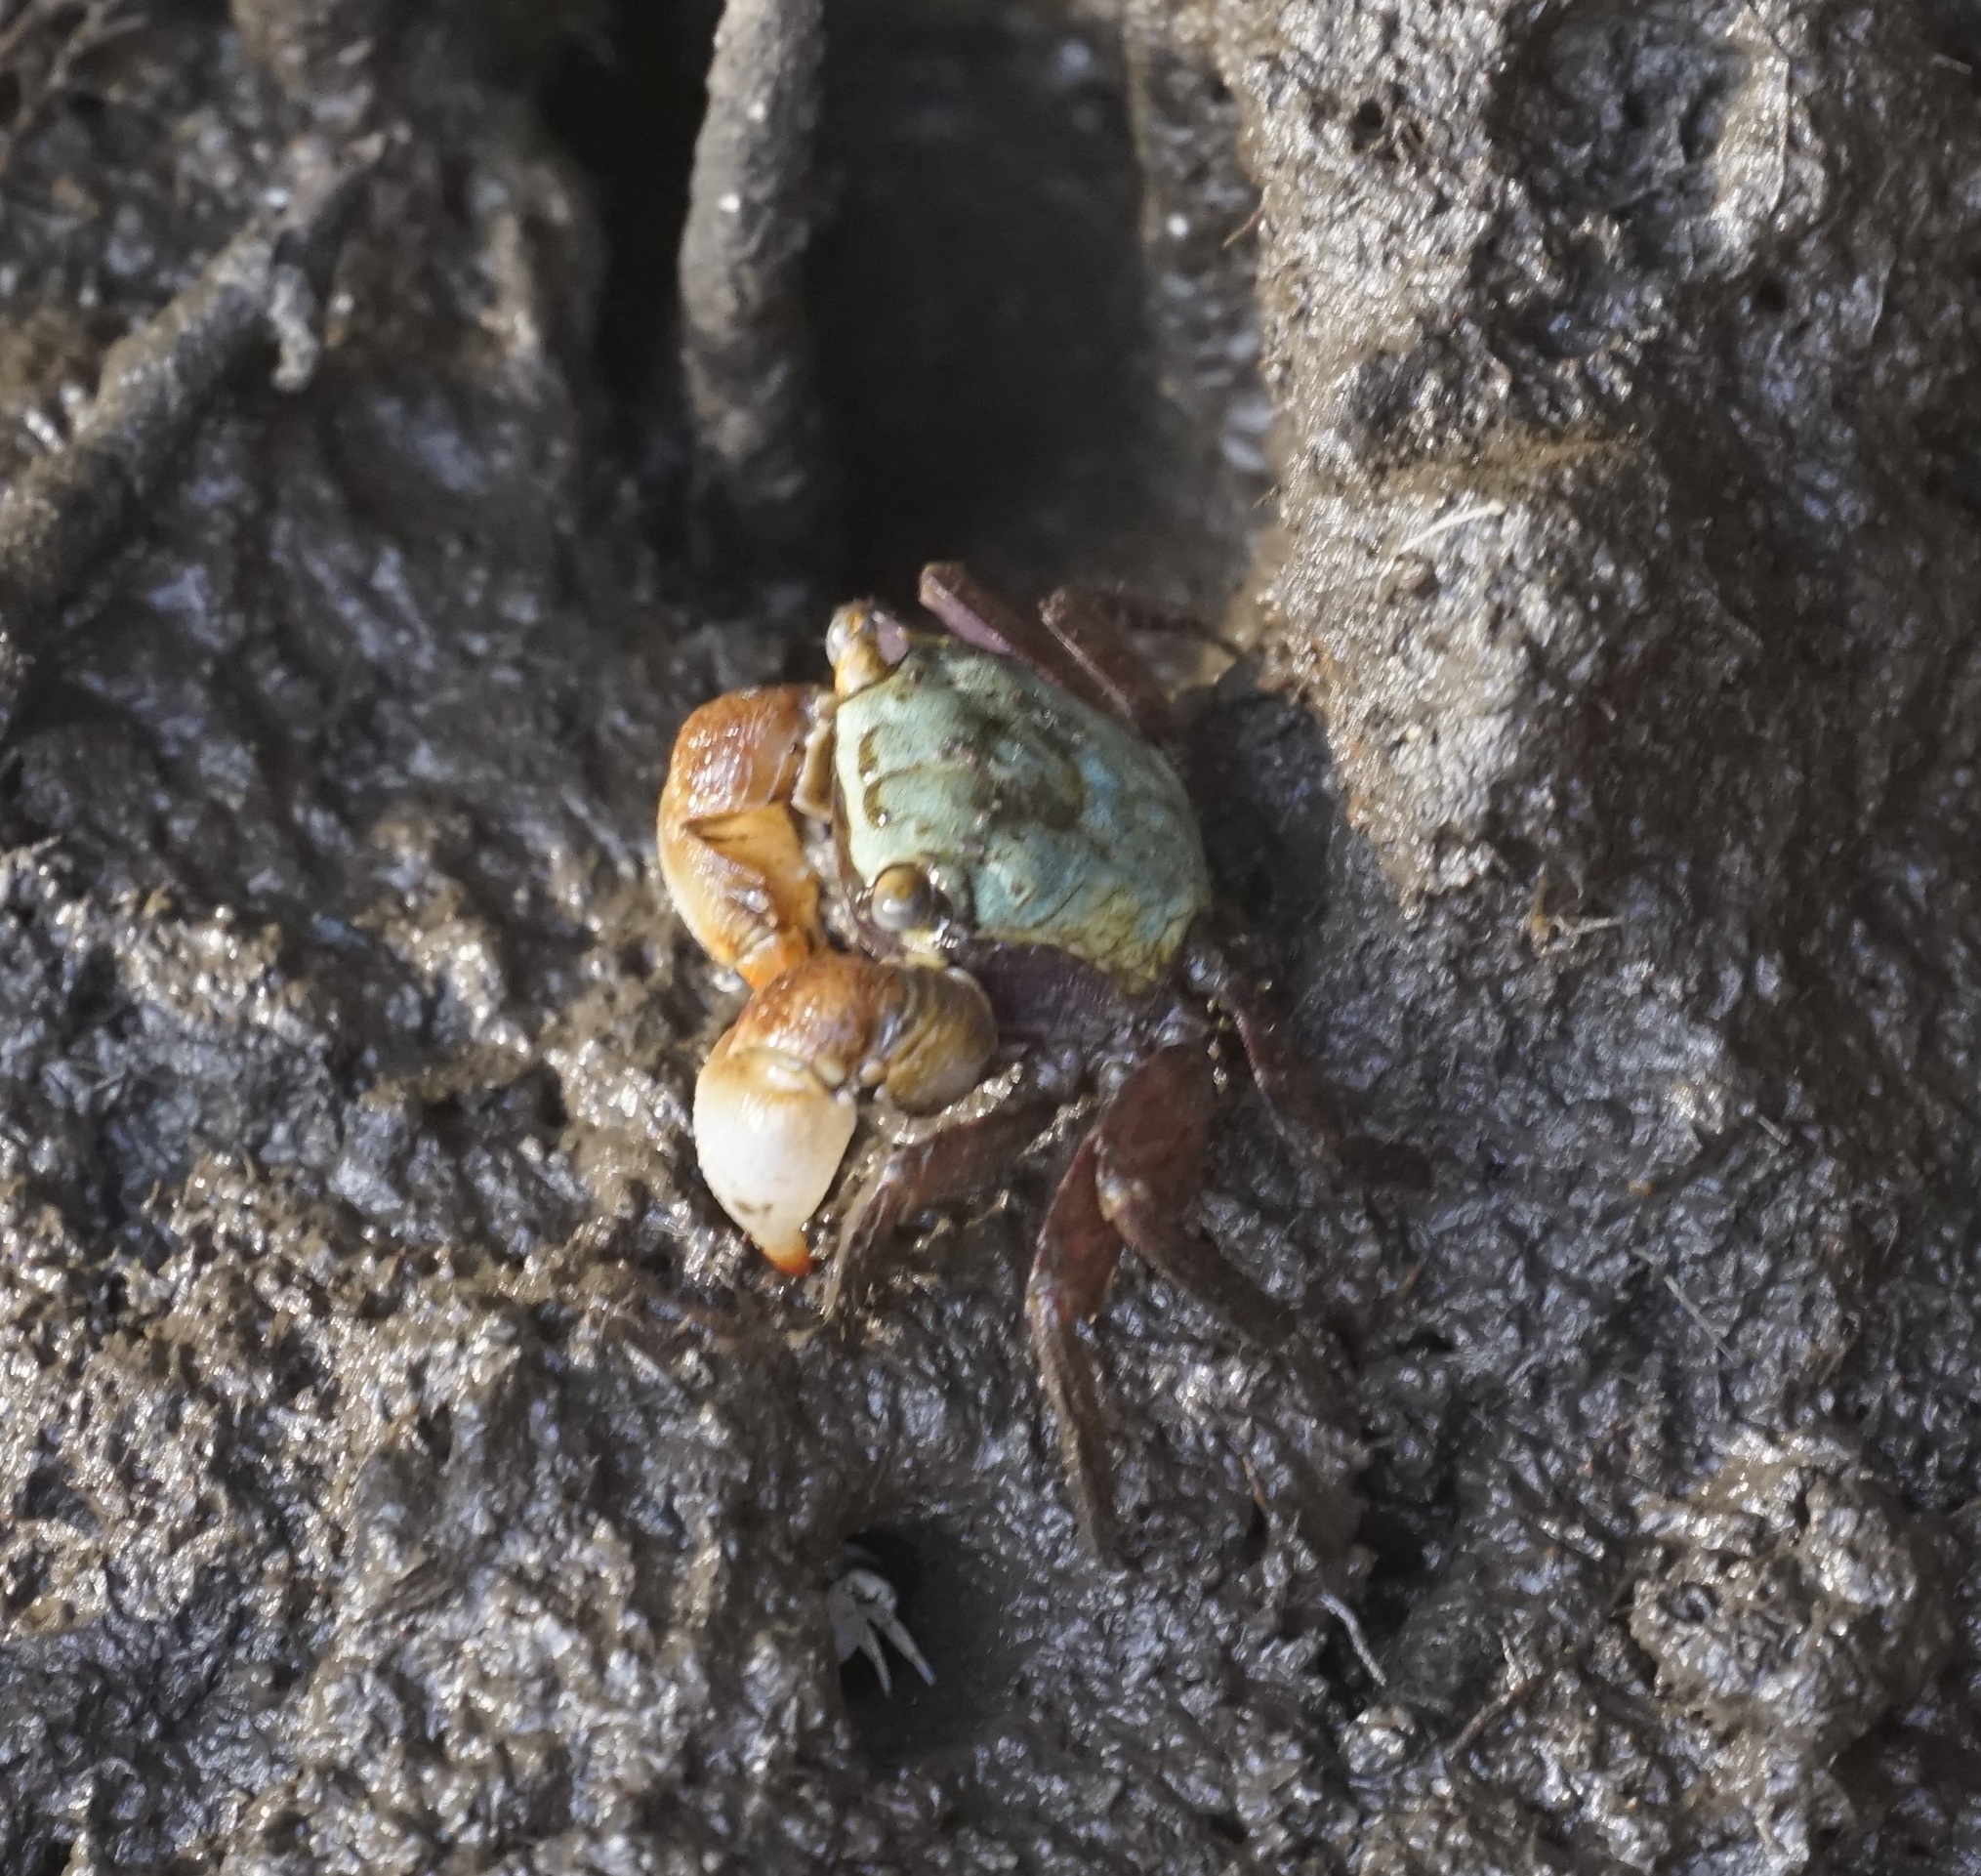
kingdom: Animalia
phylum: Arthropoda
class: Malacostraca
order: Decapoda
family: Sesarmidae
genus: Parasesarma
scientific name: Parasesarma erythodactylum
